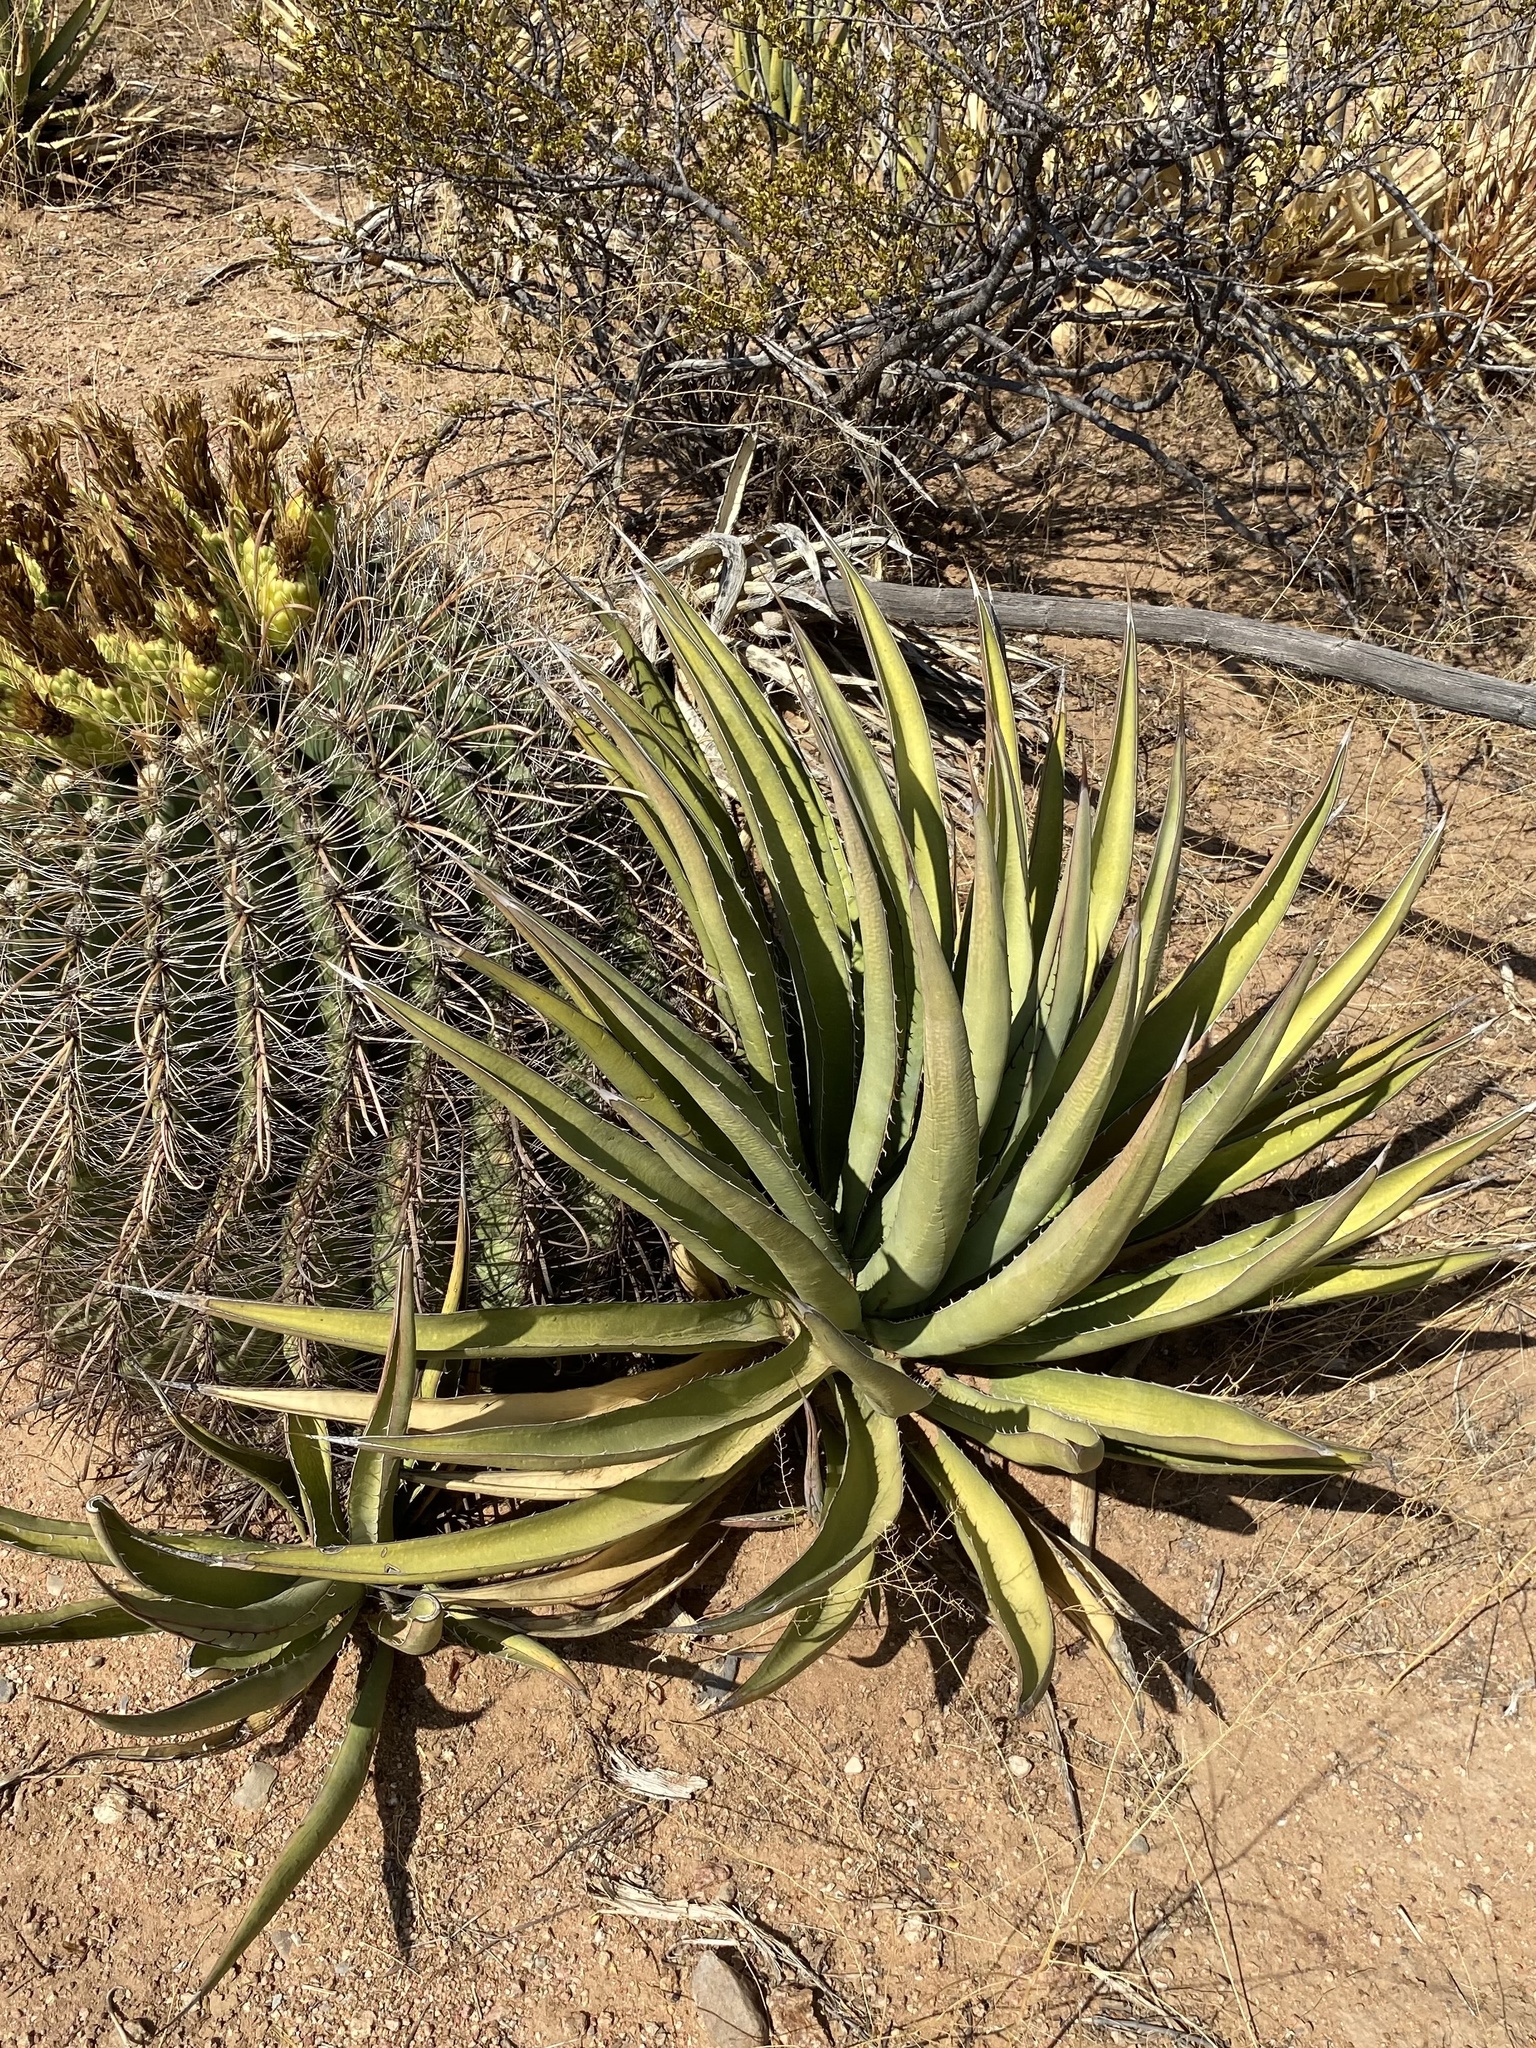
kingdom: Plantae
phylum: Tracheophyta
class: Liliopsida
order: Asparagales
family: Asparagaceae
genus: Agave
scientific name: Agave lechuguilla
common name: Lecheguilla agave
